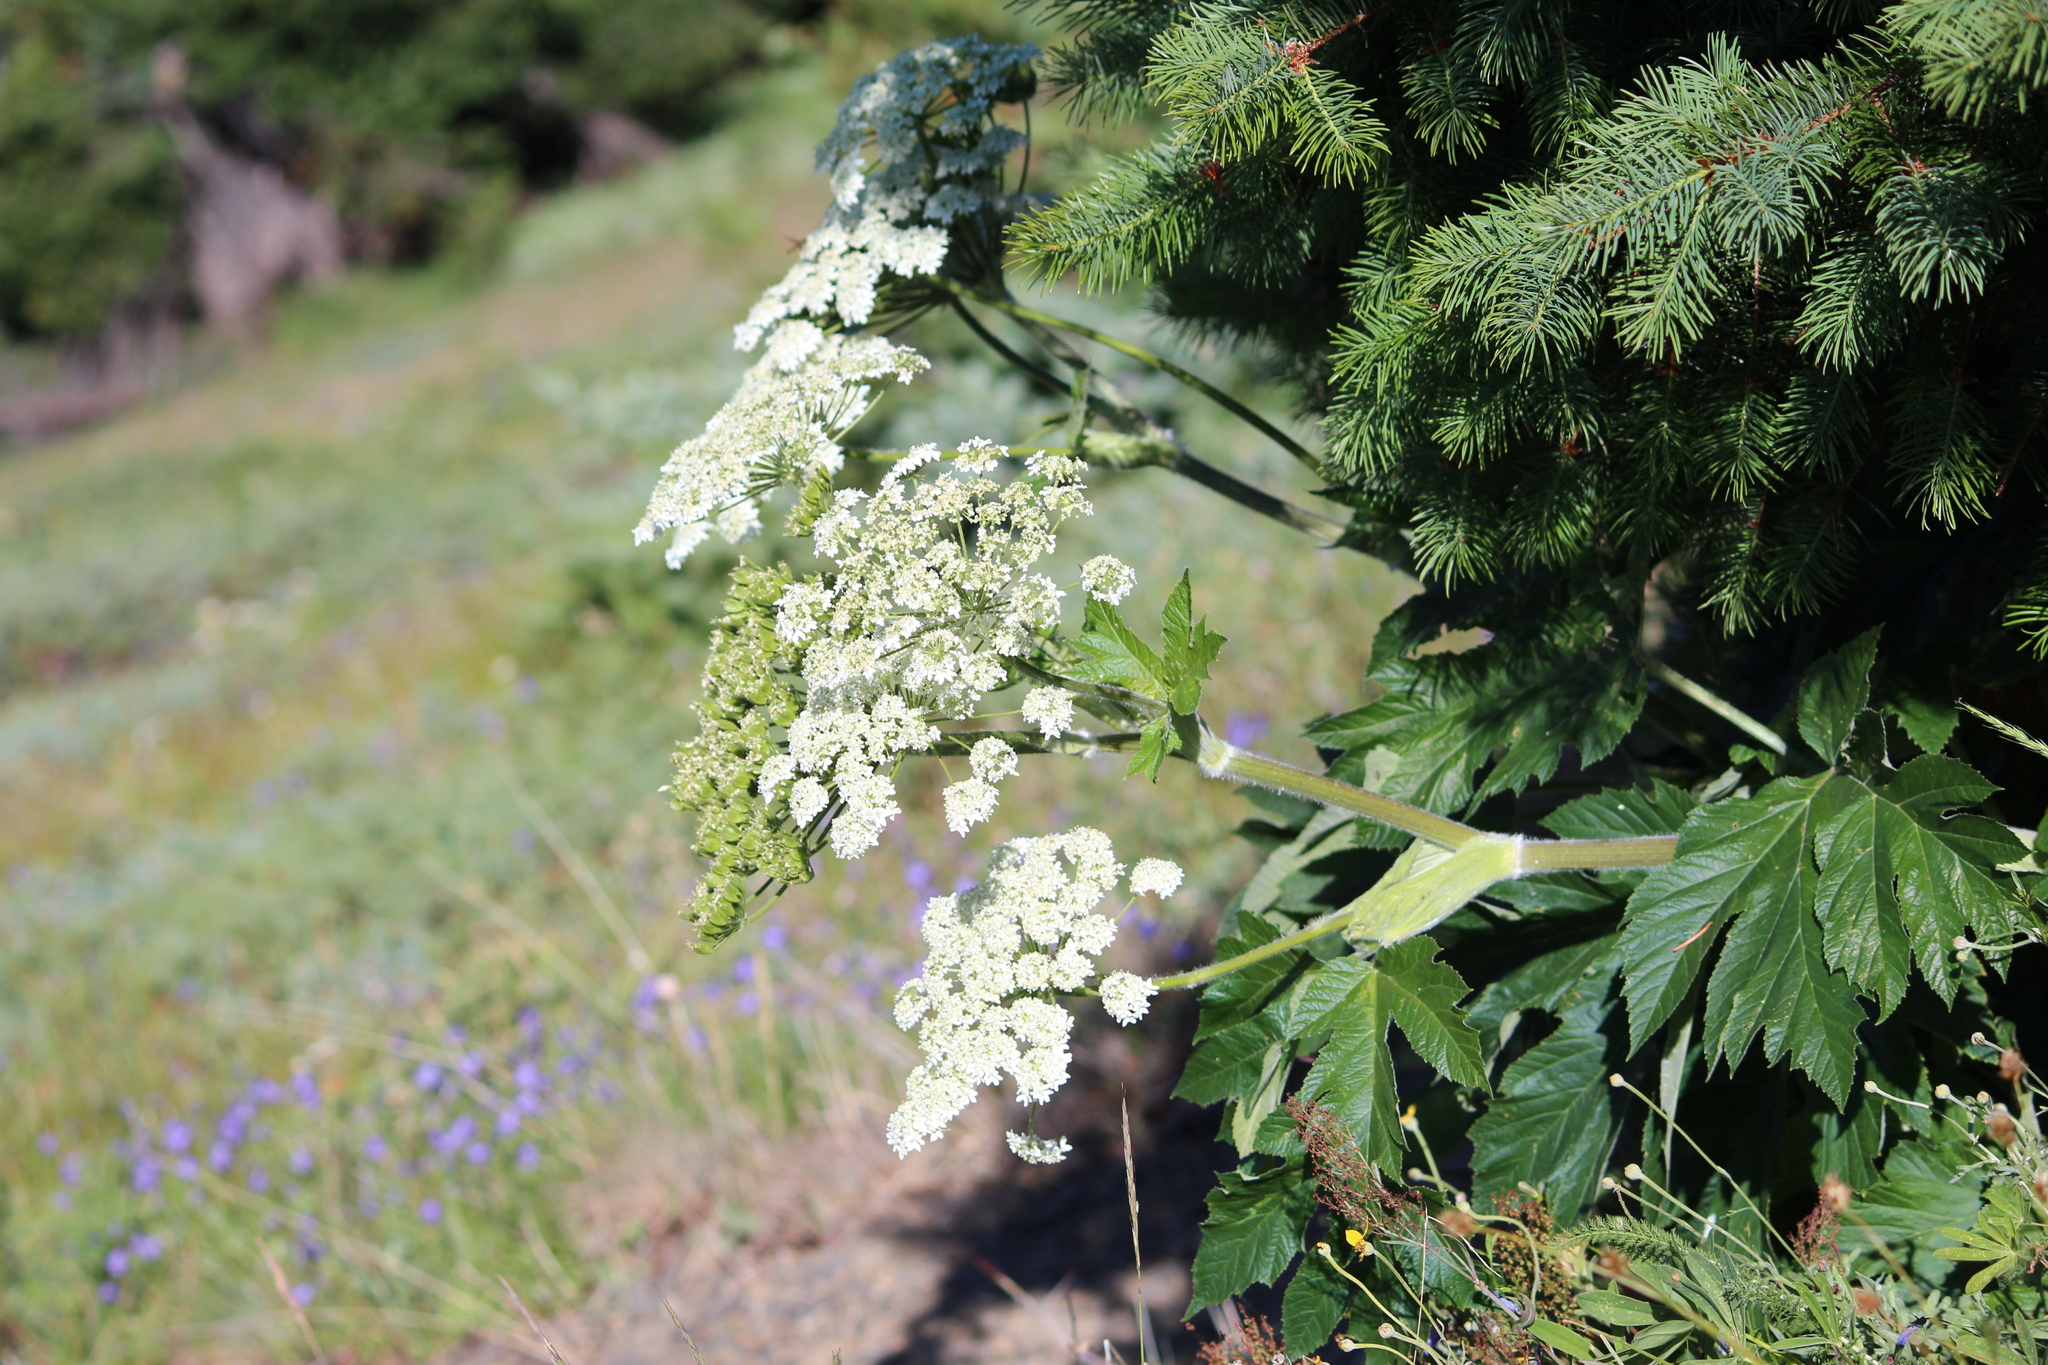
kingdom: Plantae
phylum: Tracheophyta
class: Magnoliopsida
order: Apiales
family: Apiaceae
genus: Heracleum
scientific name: Heracleum maximum
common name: American cow parsnip
